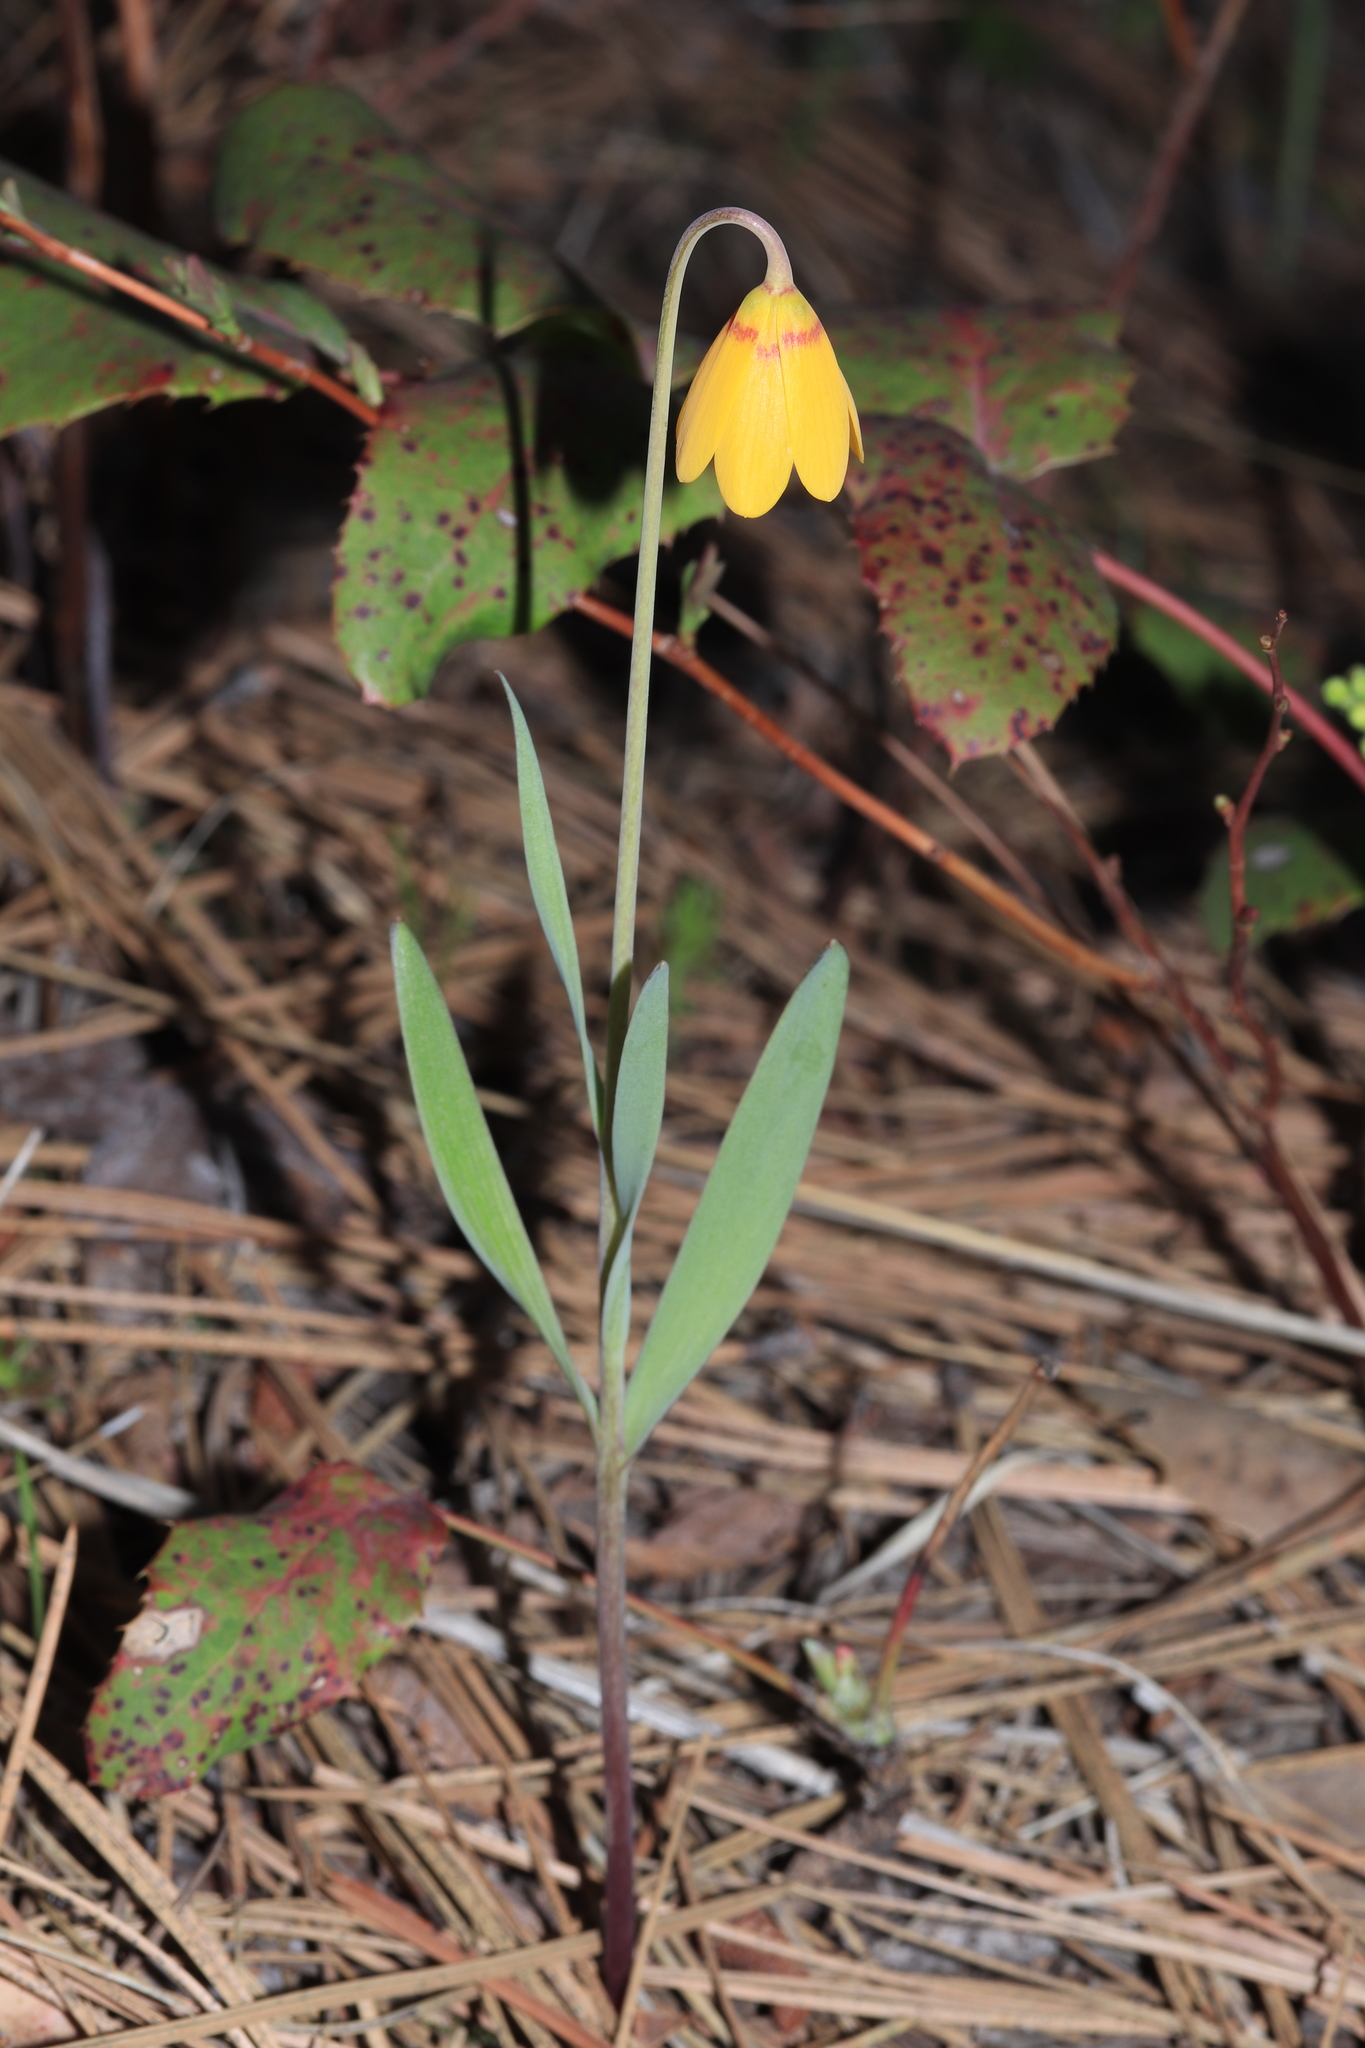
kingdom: Plantae
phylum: Tracheophyta
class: Liliopsida
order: Liliales
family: Liliaceae
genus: Fritillaria
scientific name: Fritillaria pudica
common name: Yellow fritillary
